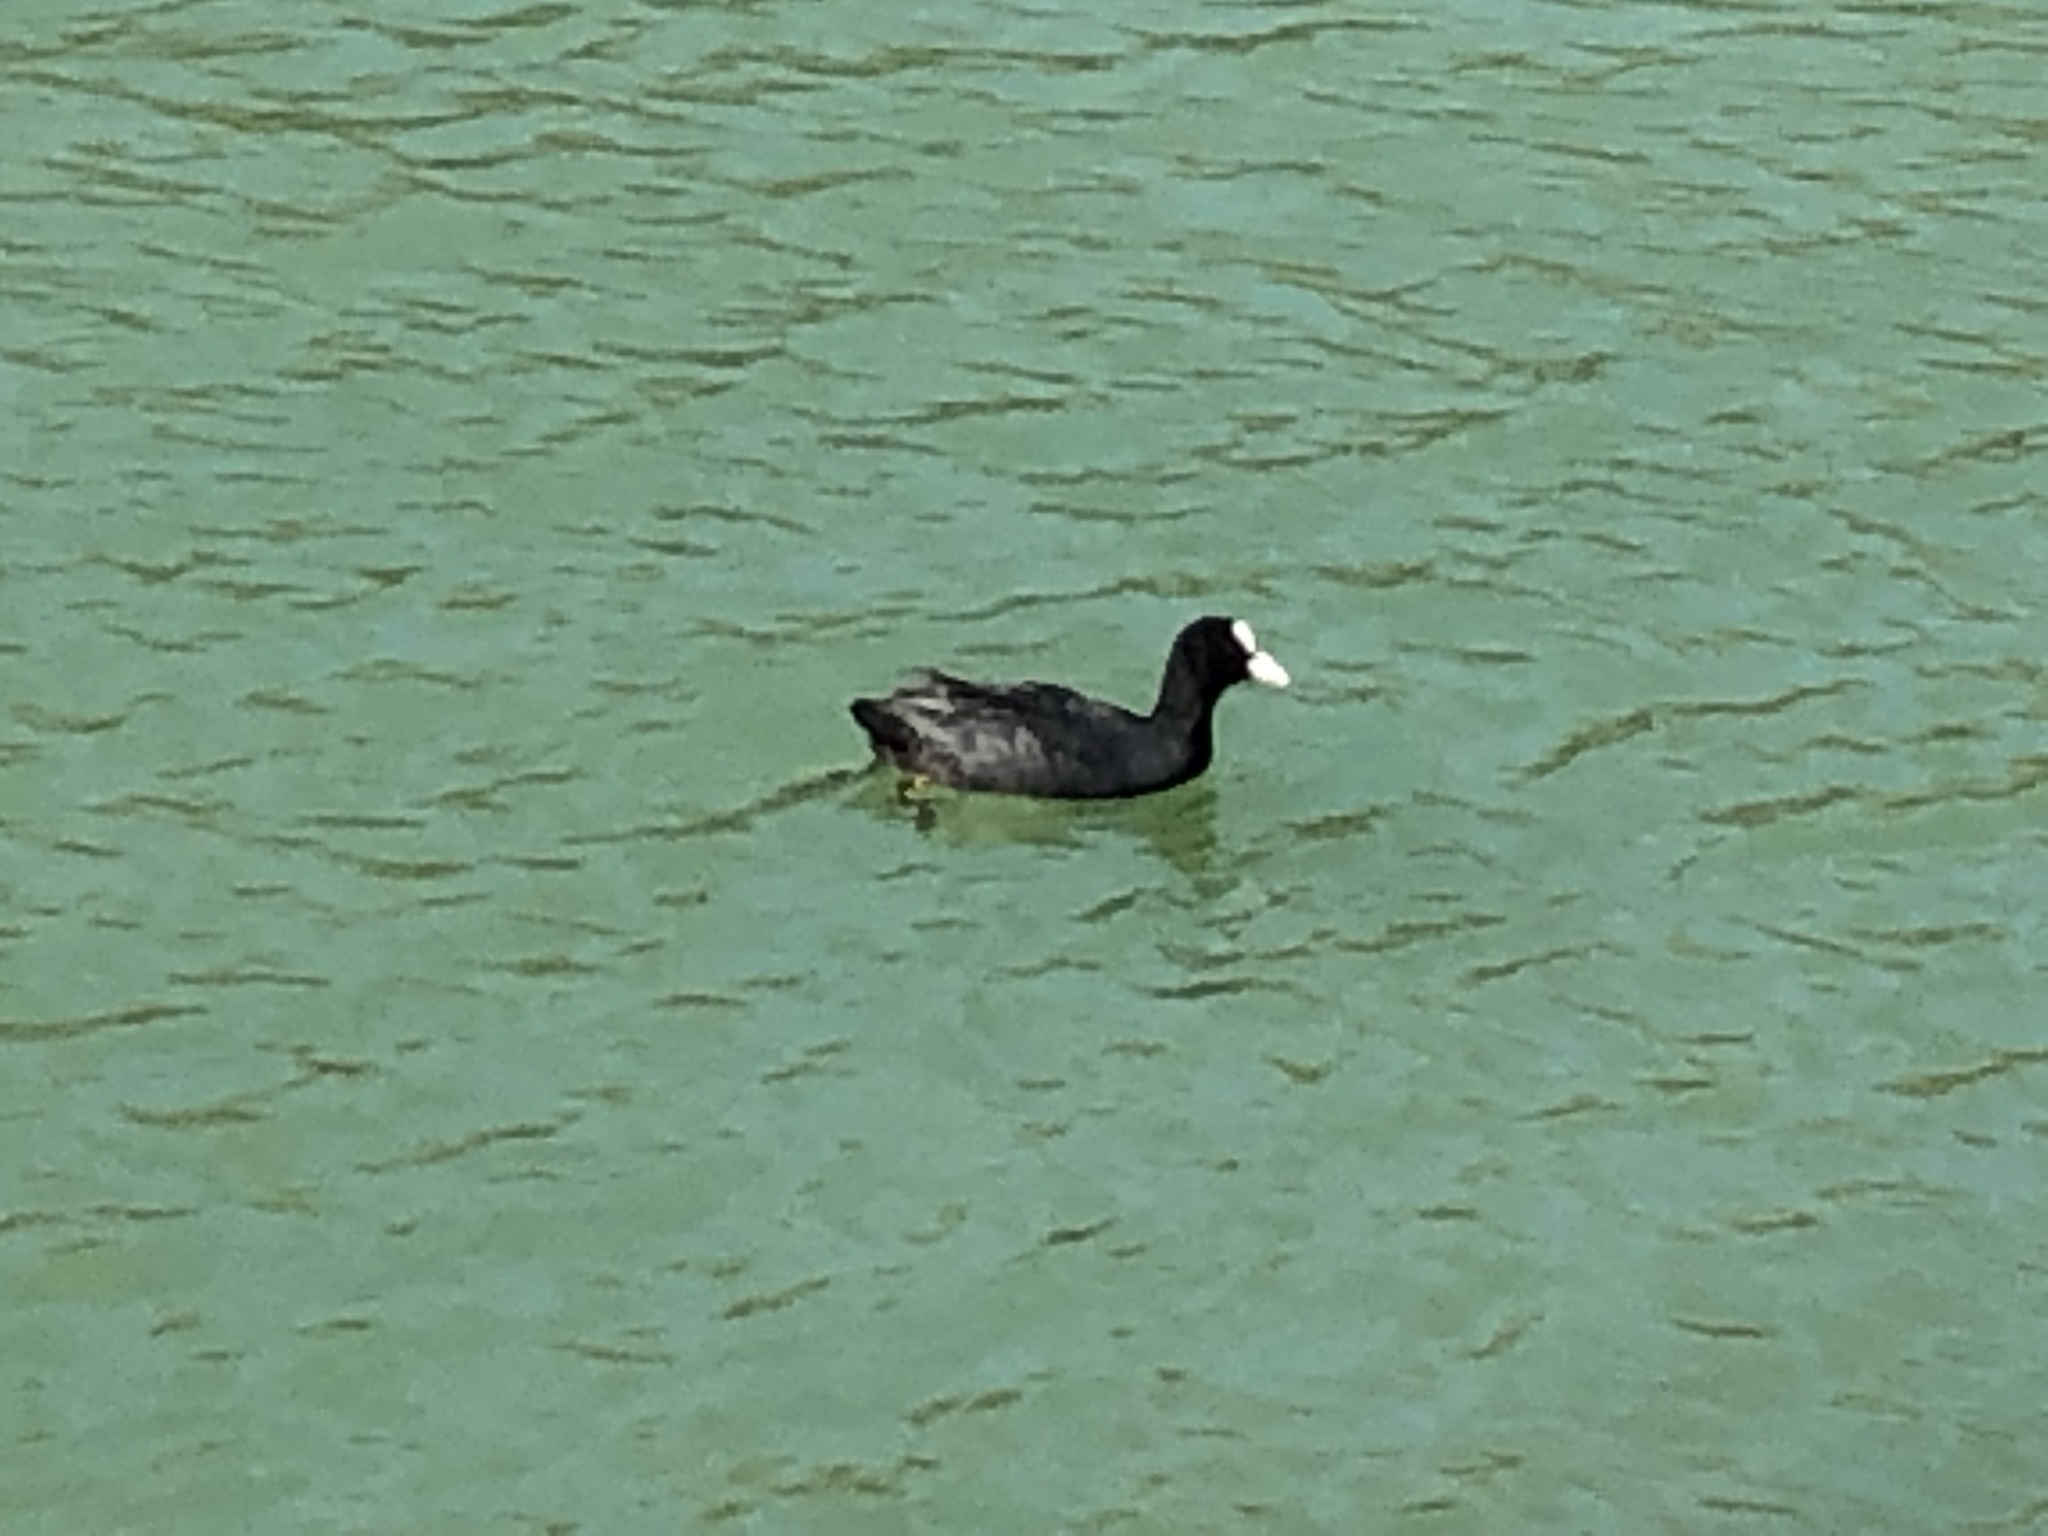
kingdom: Animalia
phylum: Chordata
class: Aves
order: Gruiformes
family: Rallidae
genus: Fulica
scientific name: Fulica atra
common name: Eurasian coot
